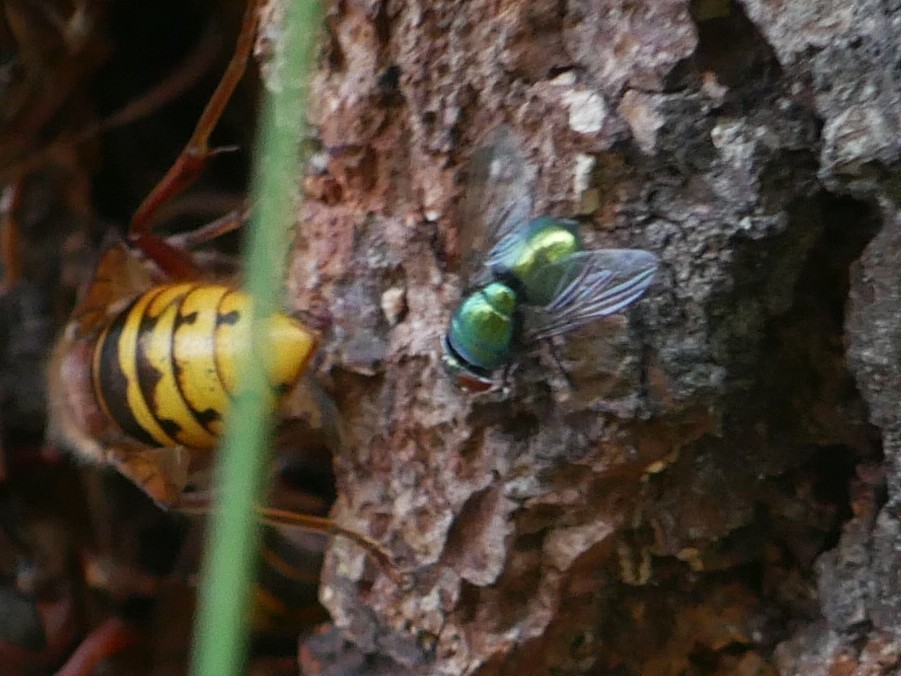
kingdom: Animalia
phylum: Arthropoda
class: Insecta
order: Diptera
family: Calliphoridae
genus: Lucilia
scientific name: Lucilia
